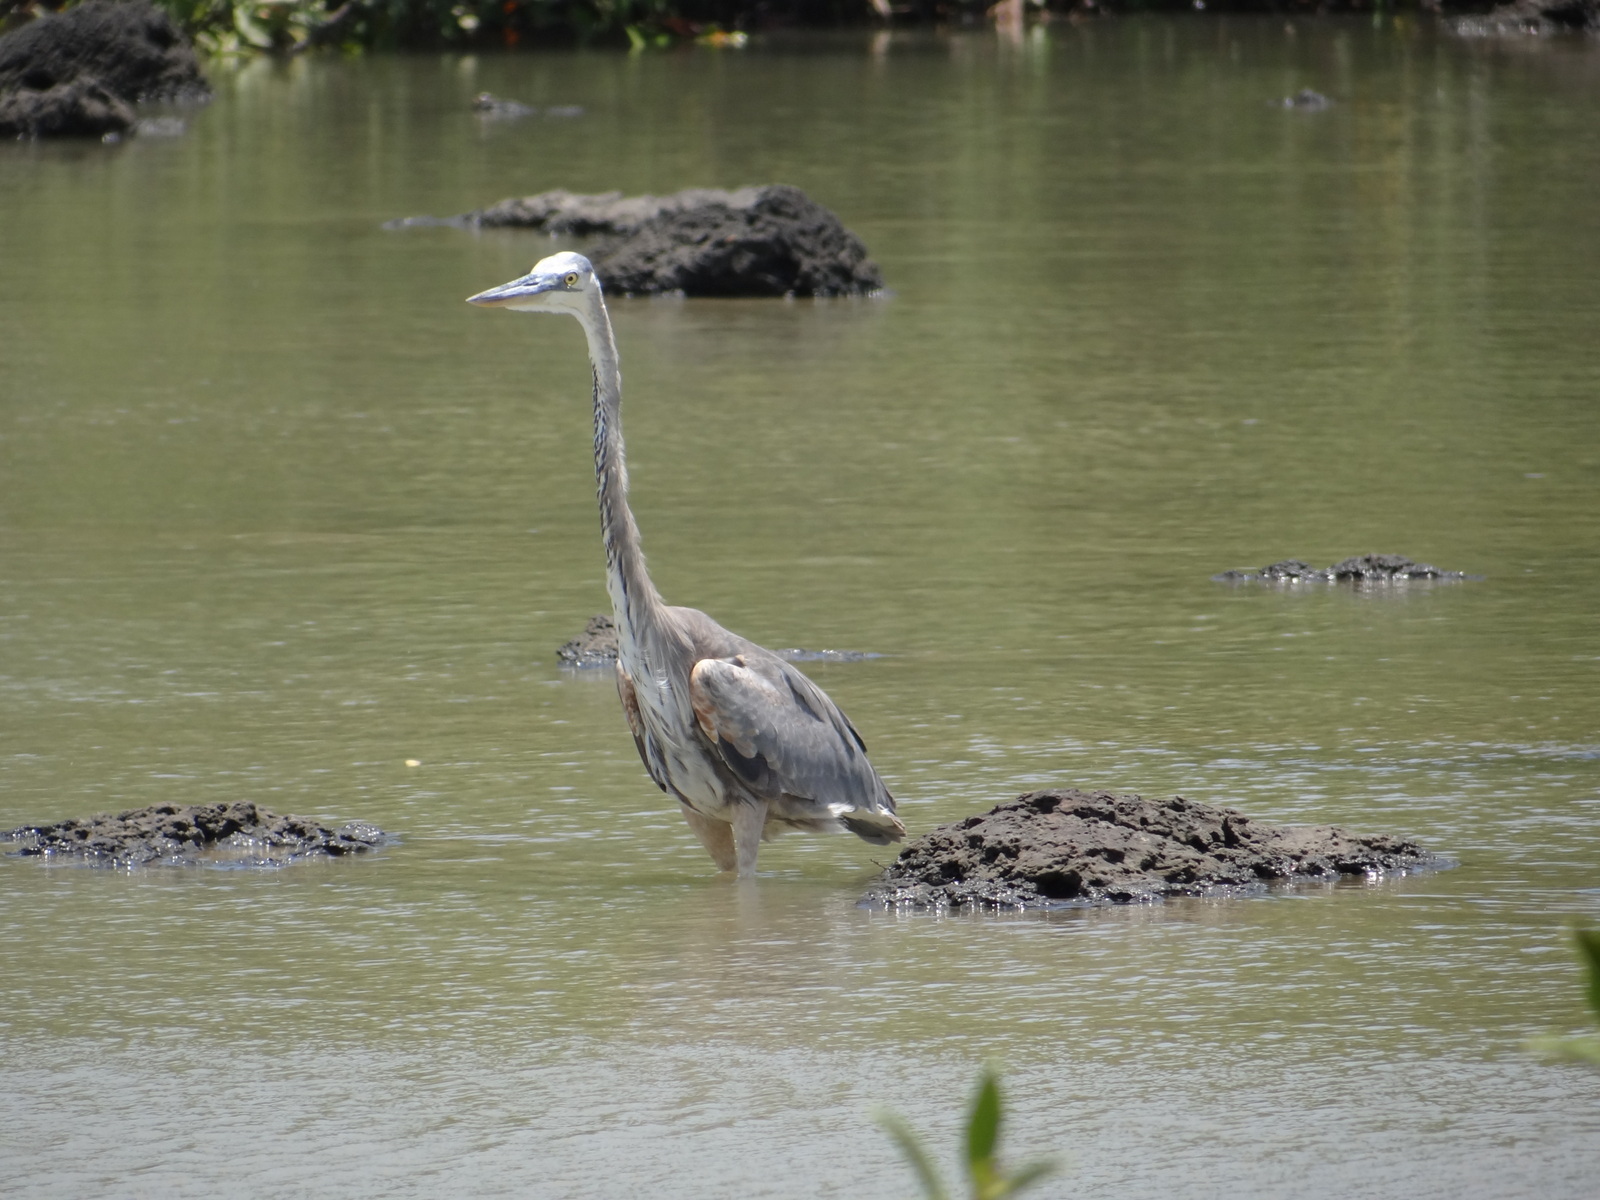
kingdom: Animalia
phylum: Chordata
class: Aves
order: Pelecaniformes
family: Ardeidae
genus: Ardea
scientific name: Ardea herodias
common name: Great blue heron
